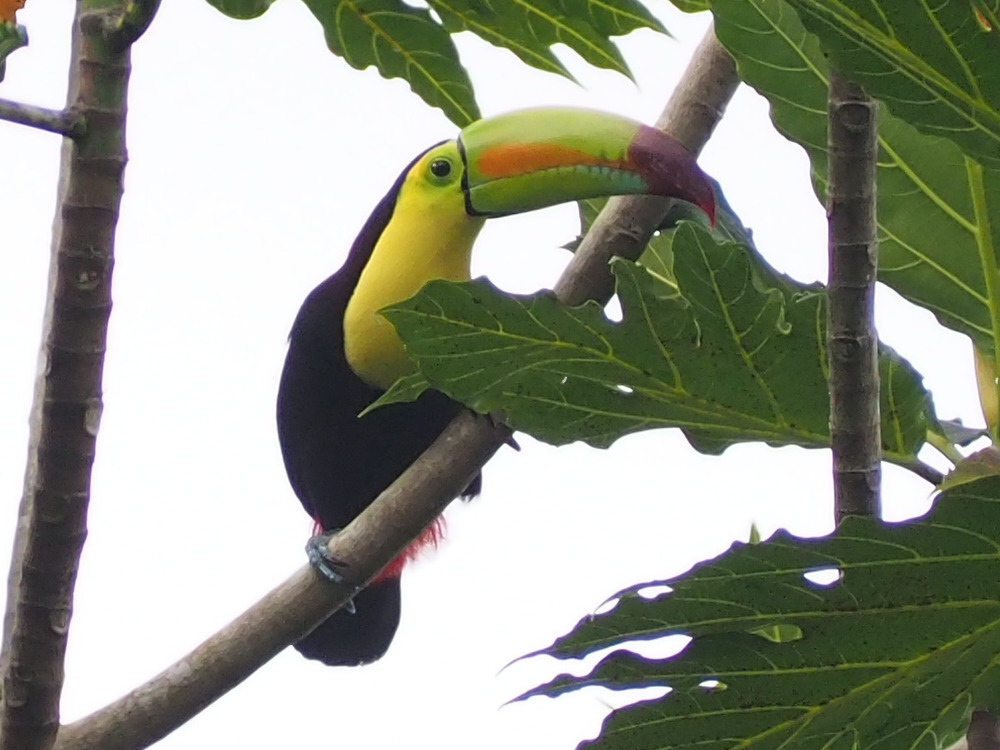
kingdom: Animalia
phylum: Chordata
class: Aves
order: Piciformes
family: Ramphastidae
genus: Ramphastos
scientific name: Ramphastos sulfuratus
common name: Keel-billed toucan
